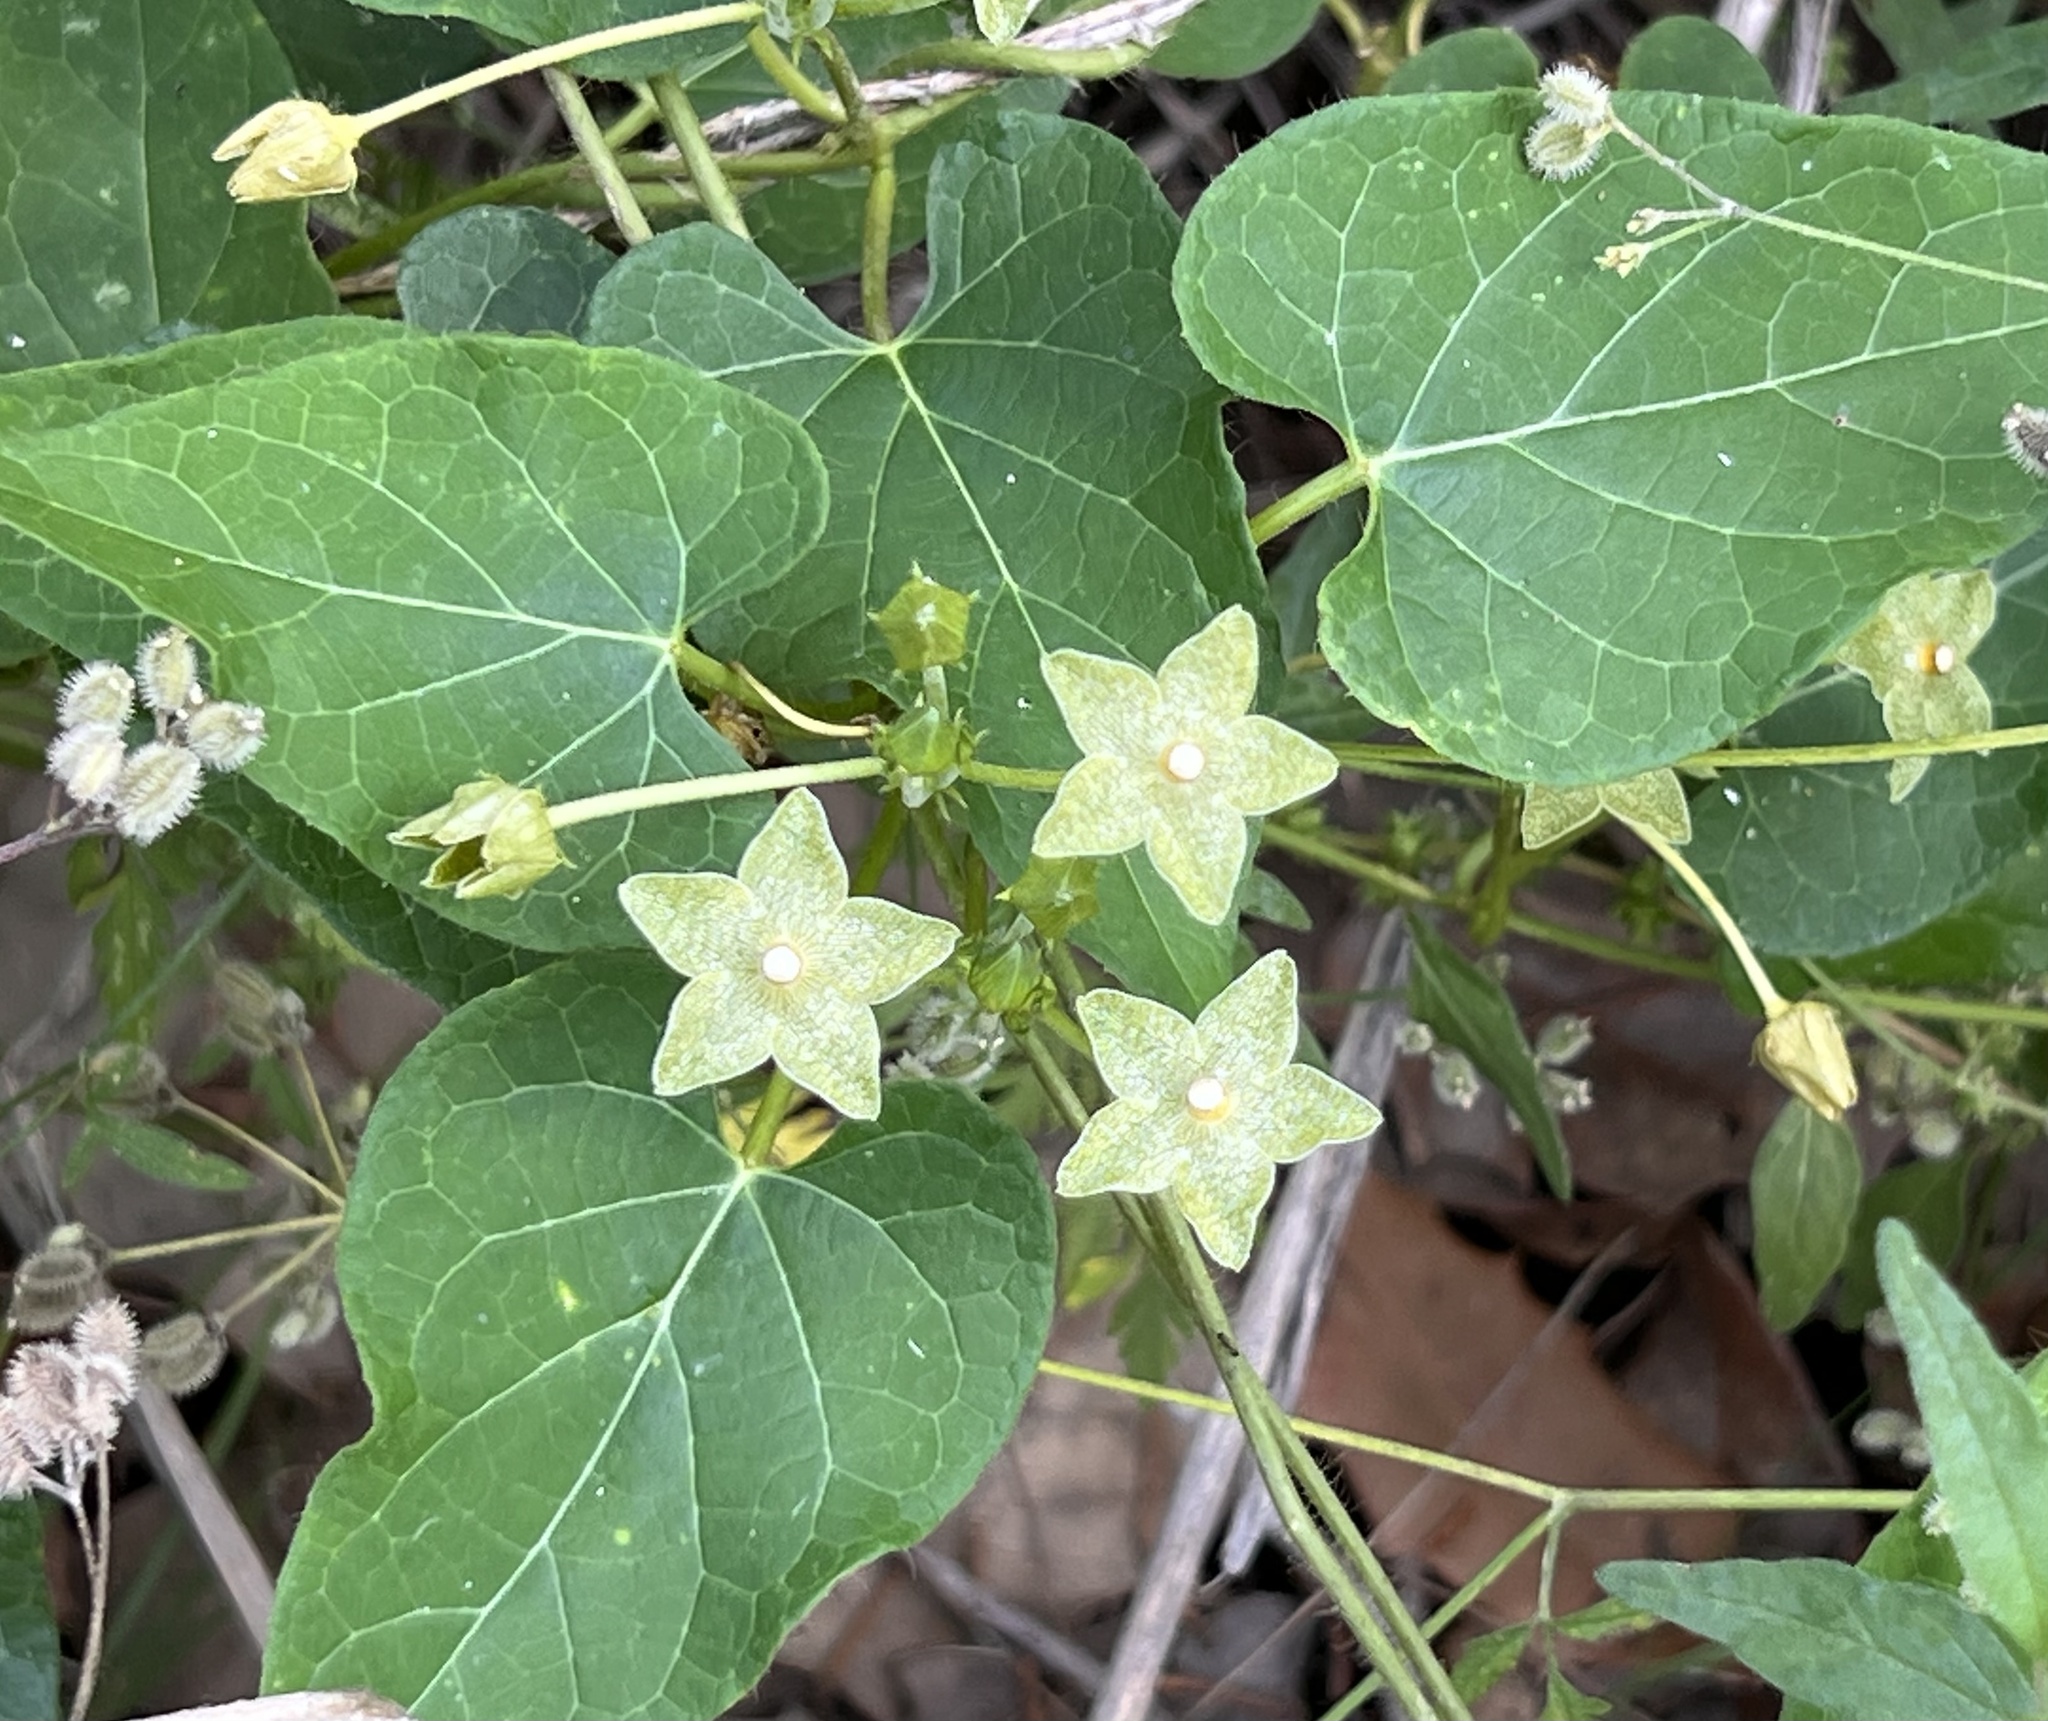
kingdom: Plantae
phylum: Tracheophyta
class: Magnoliopsida
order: Gentianales
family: Apocynaceae
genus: Dictyanthus
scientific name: Dictyanthus reticulatus
